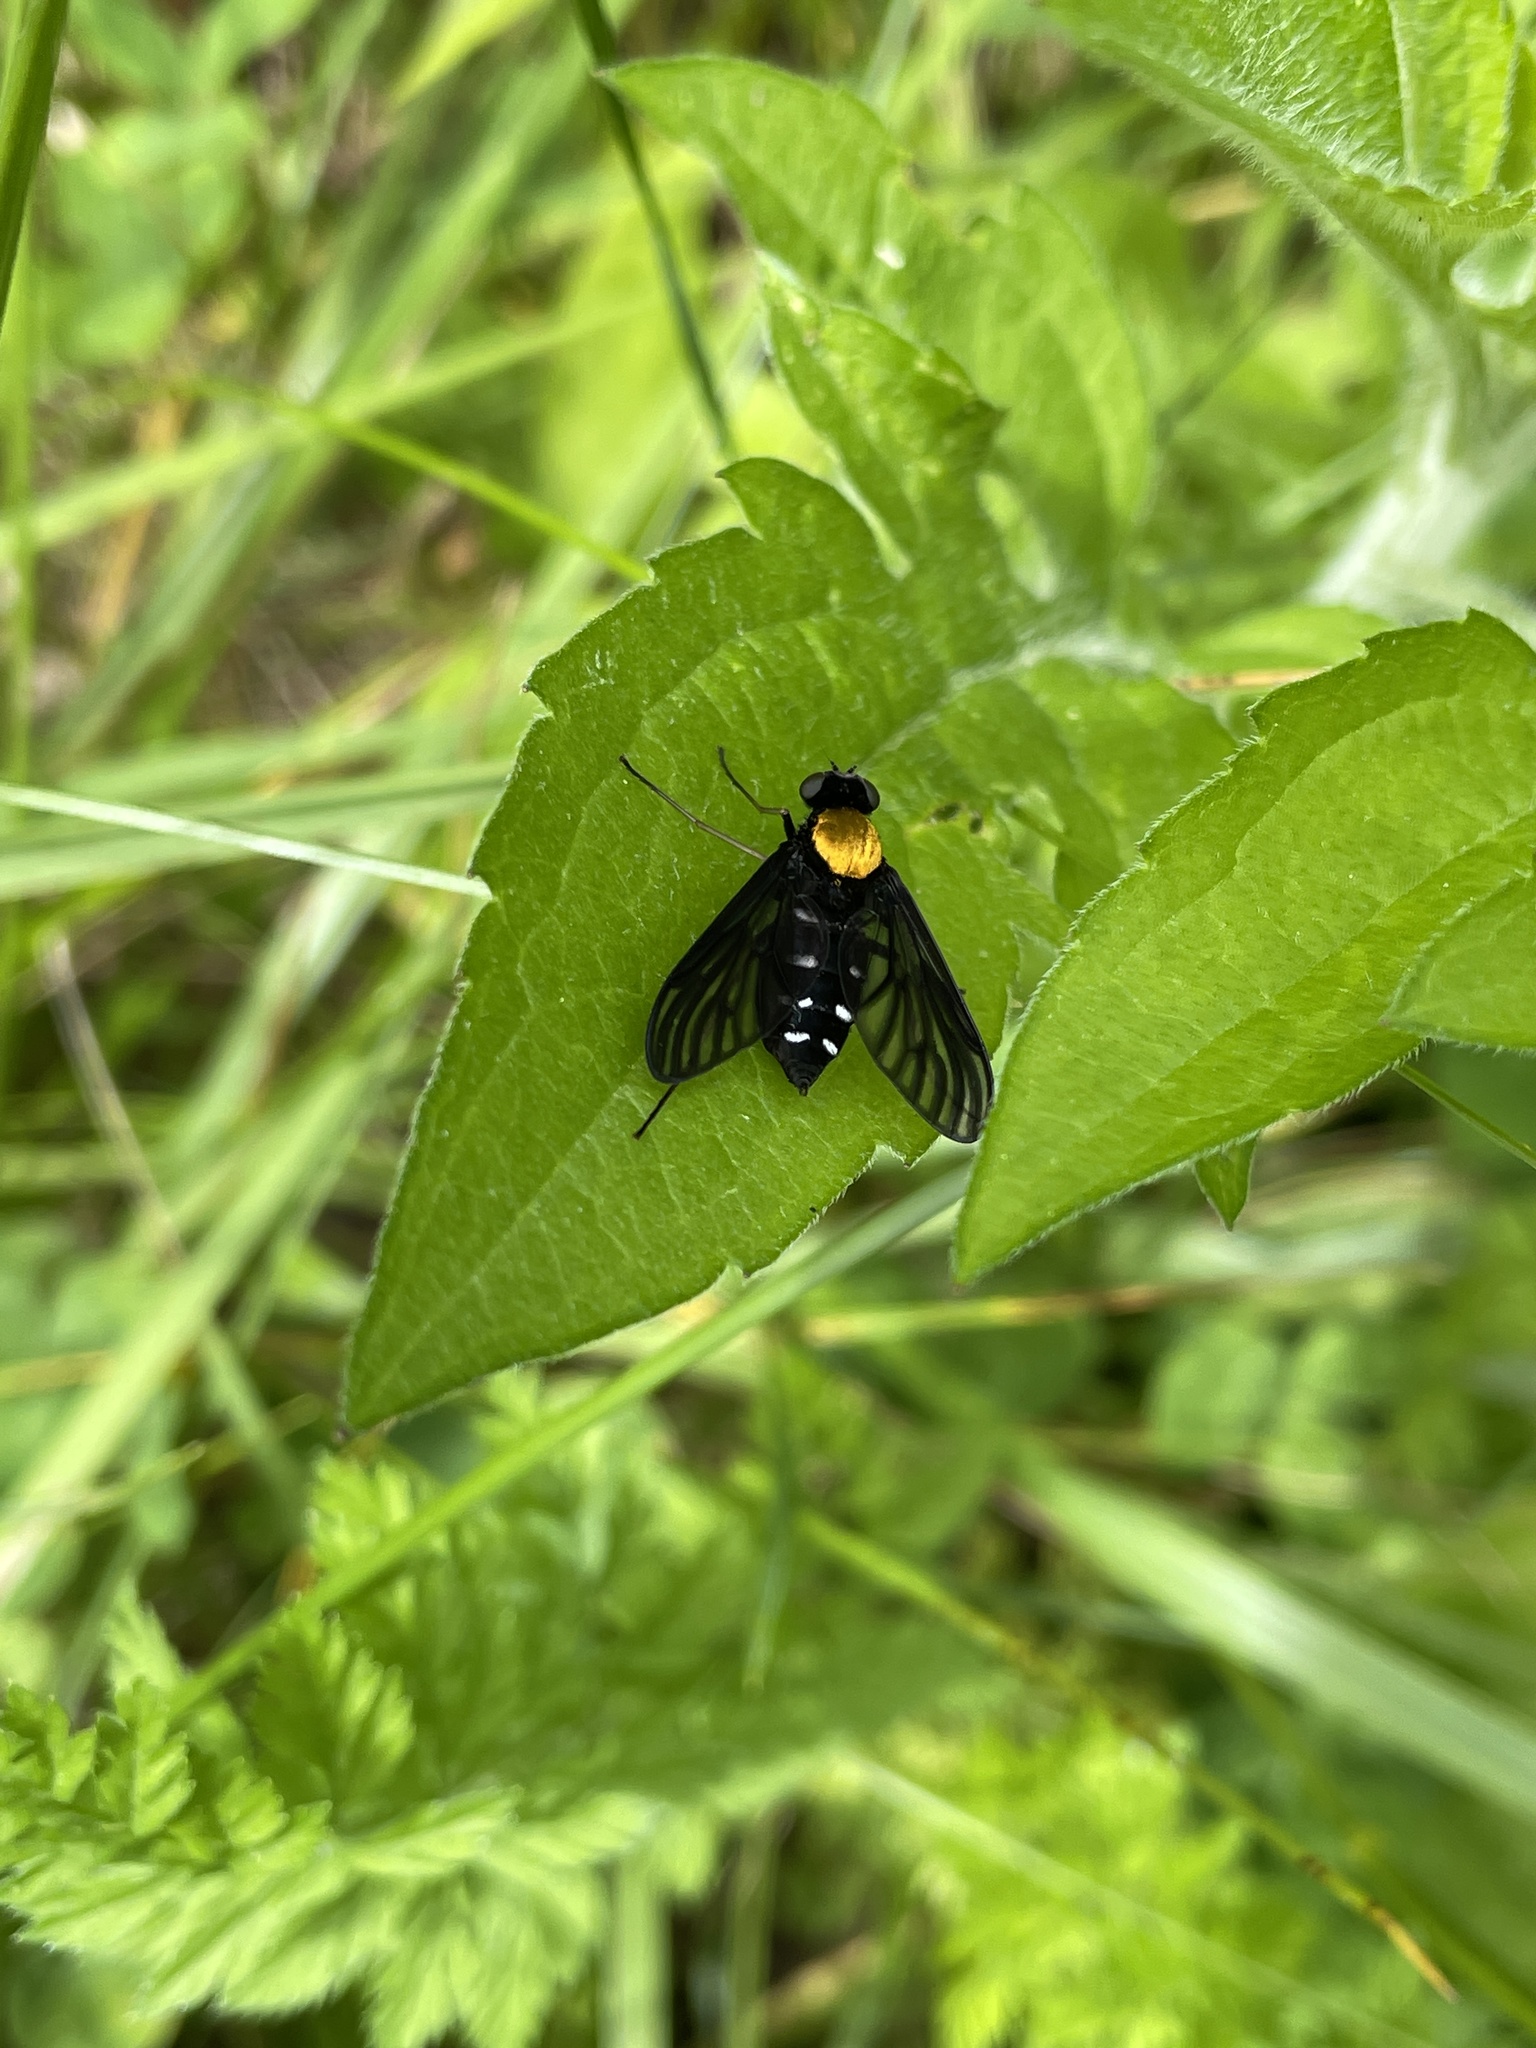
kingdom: Animalia
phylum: Arthropoda
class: Insecta
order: Diptera
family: Rhagionidae
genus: Chrysopilus
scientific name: Chrysopilus thoracicus
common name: Golden-backed snipe fly
